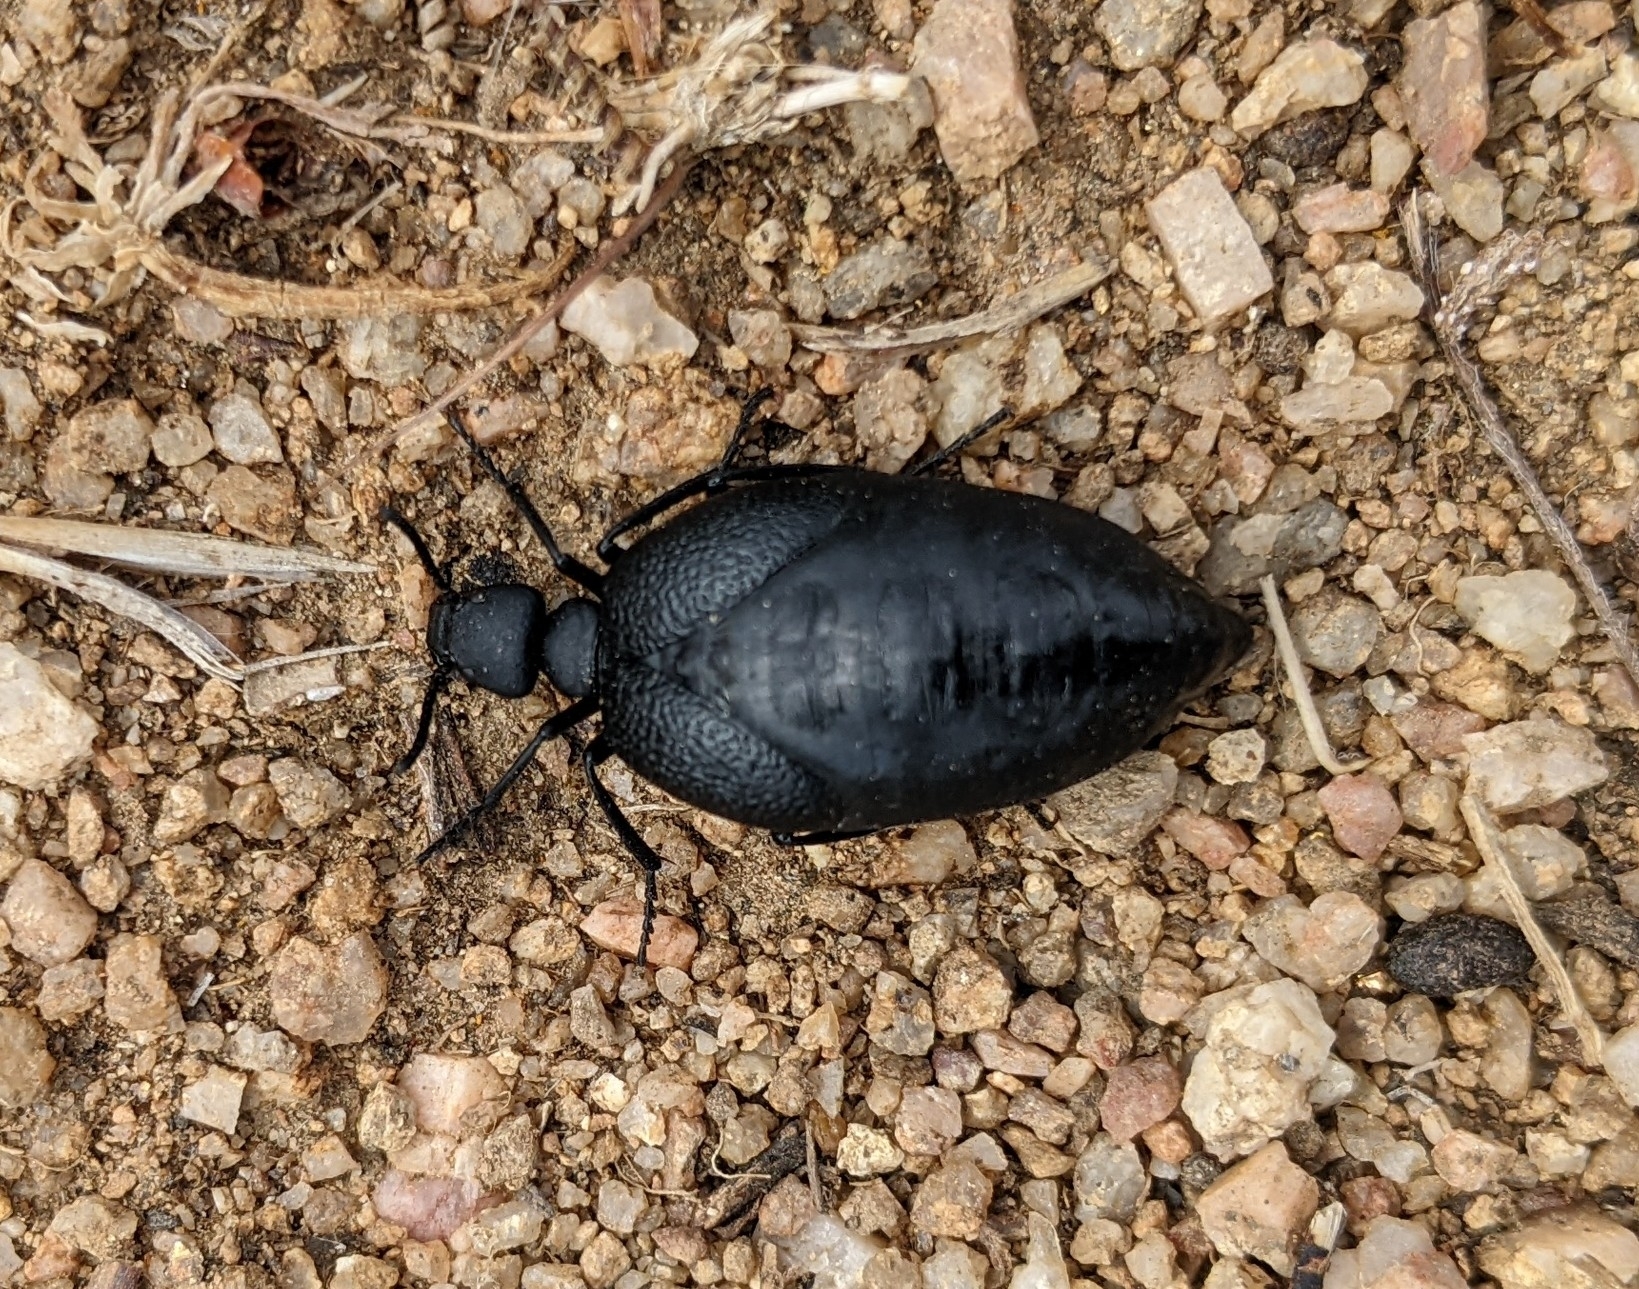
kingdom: Animalia
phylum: Arthropoda
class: Insecta
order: Coleoptera
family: Meloidae
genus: Cordylospasta
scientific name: Cordylospasta opaca
